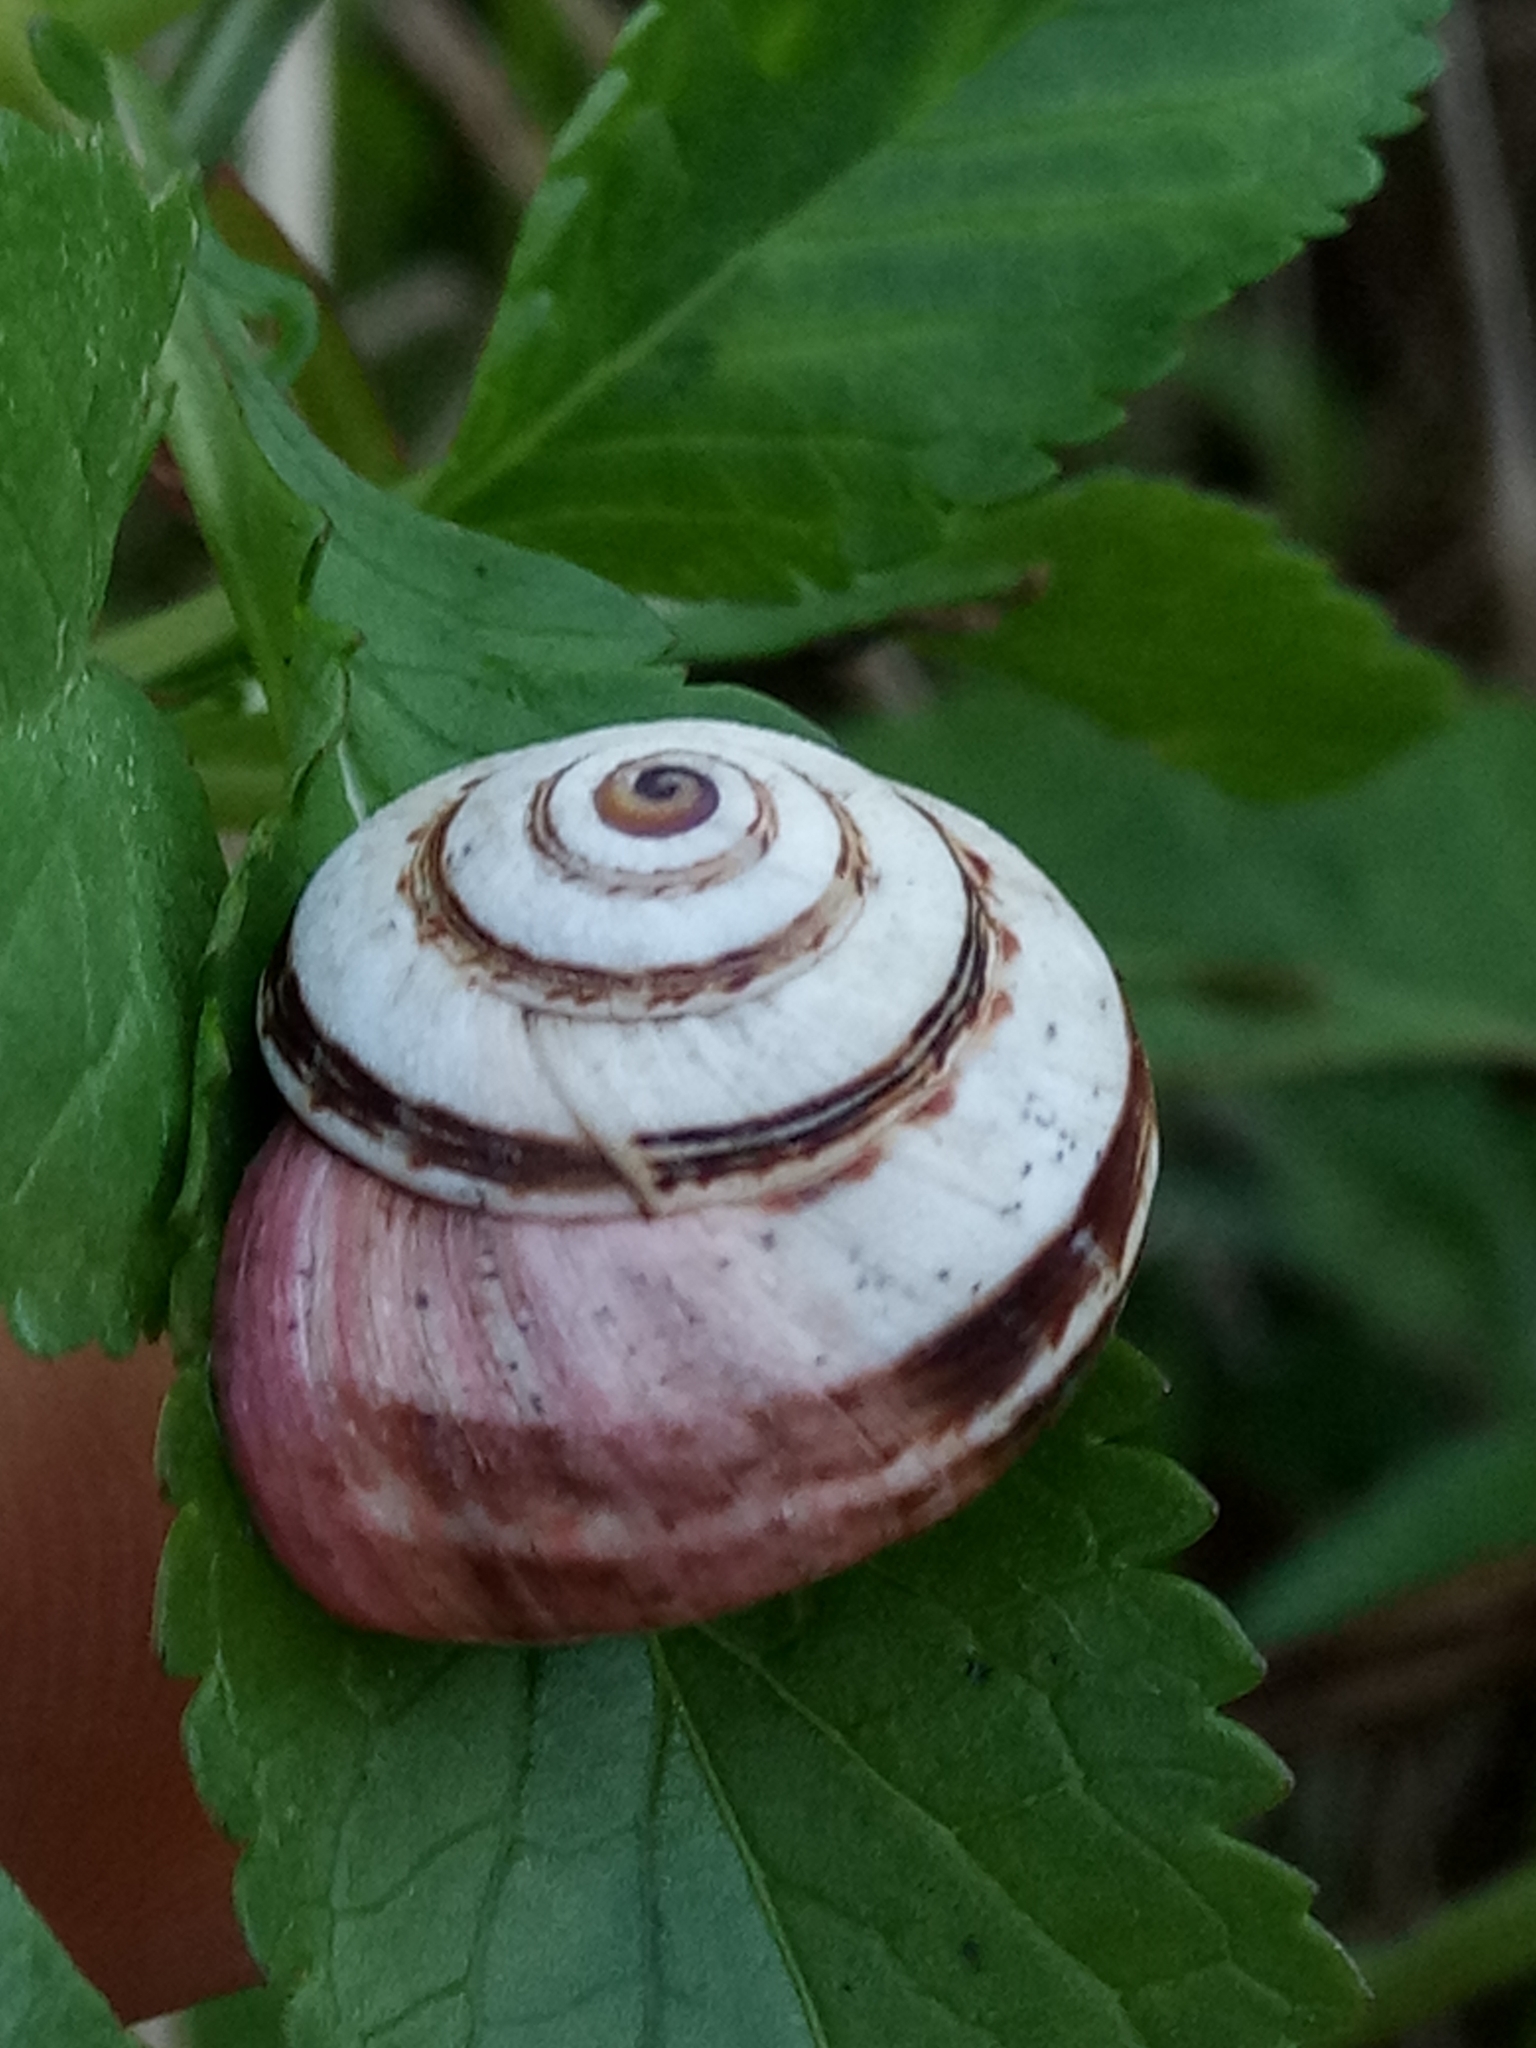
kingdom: Animalia
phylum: Mollusca
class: Gastropoda
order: Stylommatophora
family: Helicidae
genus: Theba
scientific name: Theba pisana
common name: White snail
